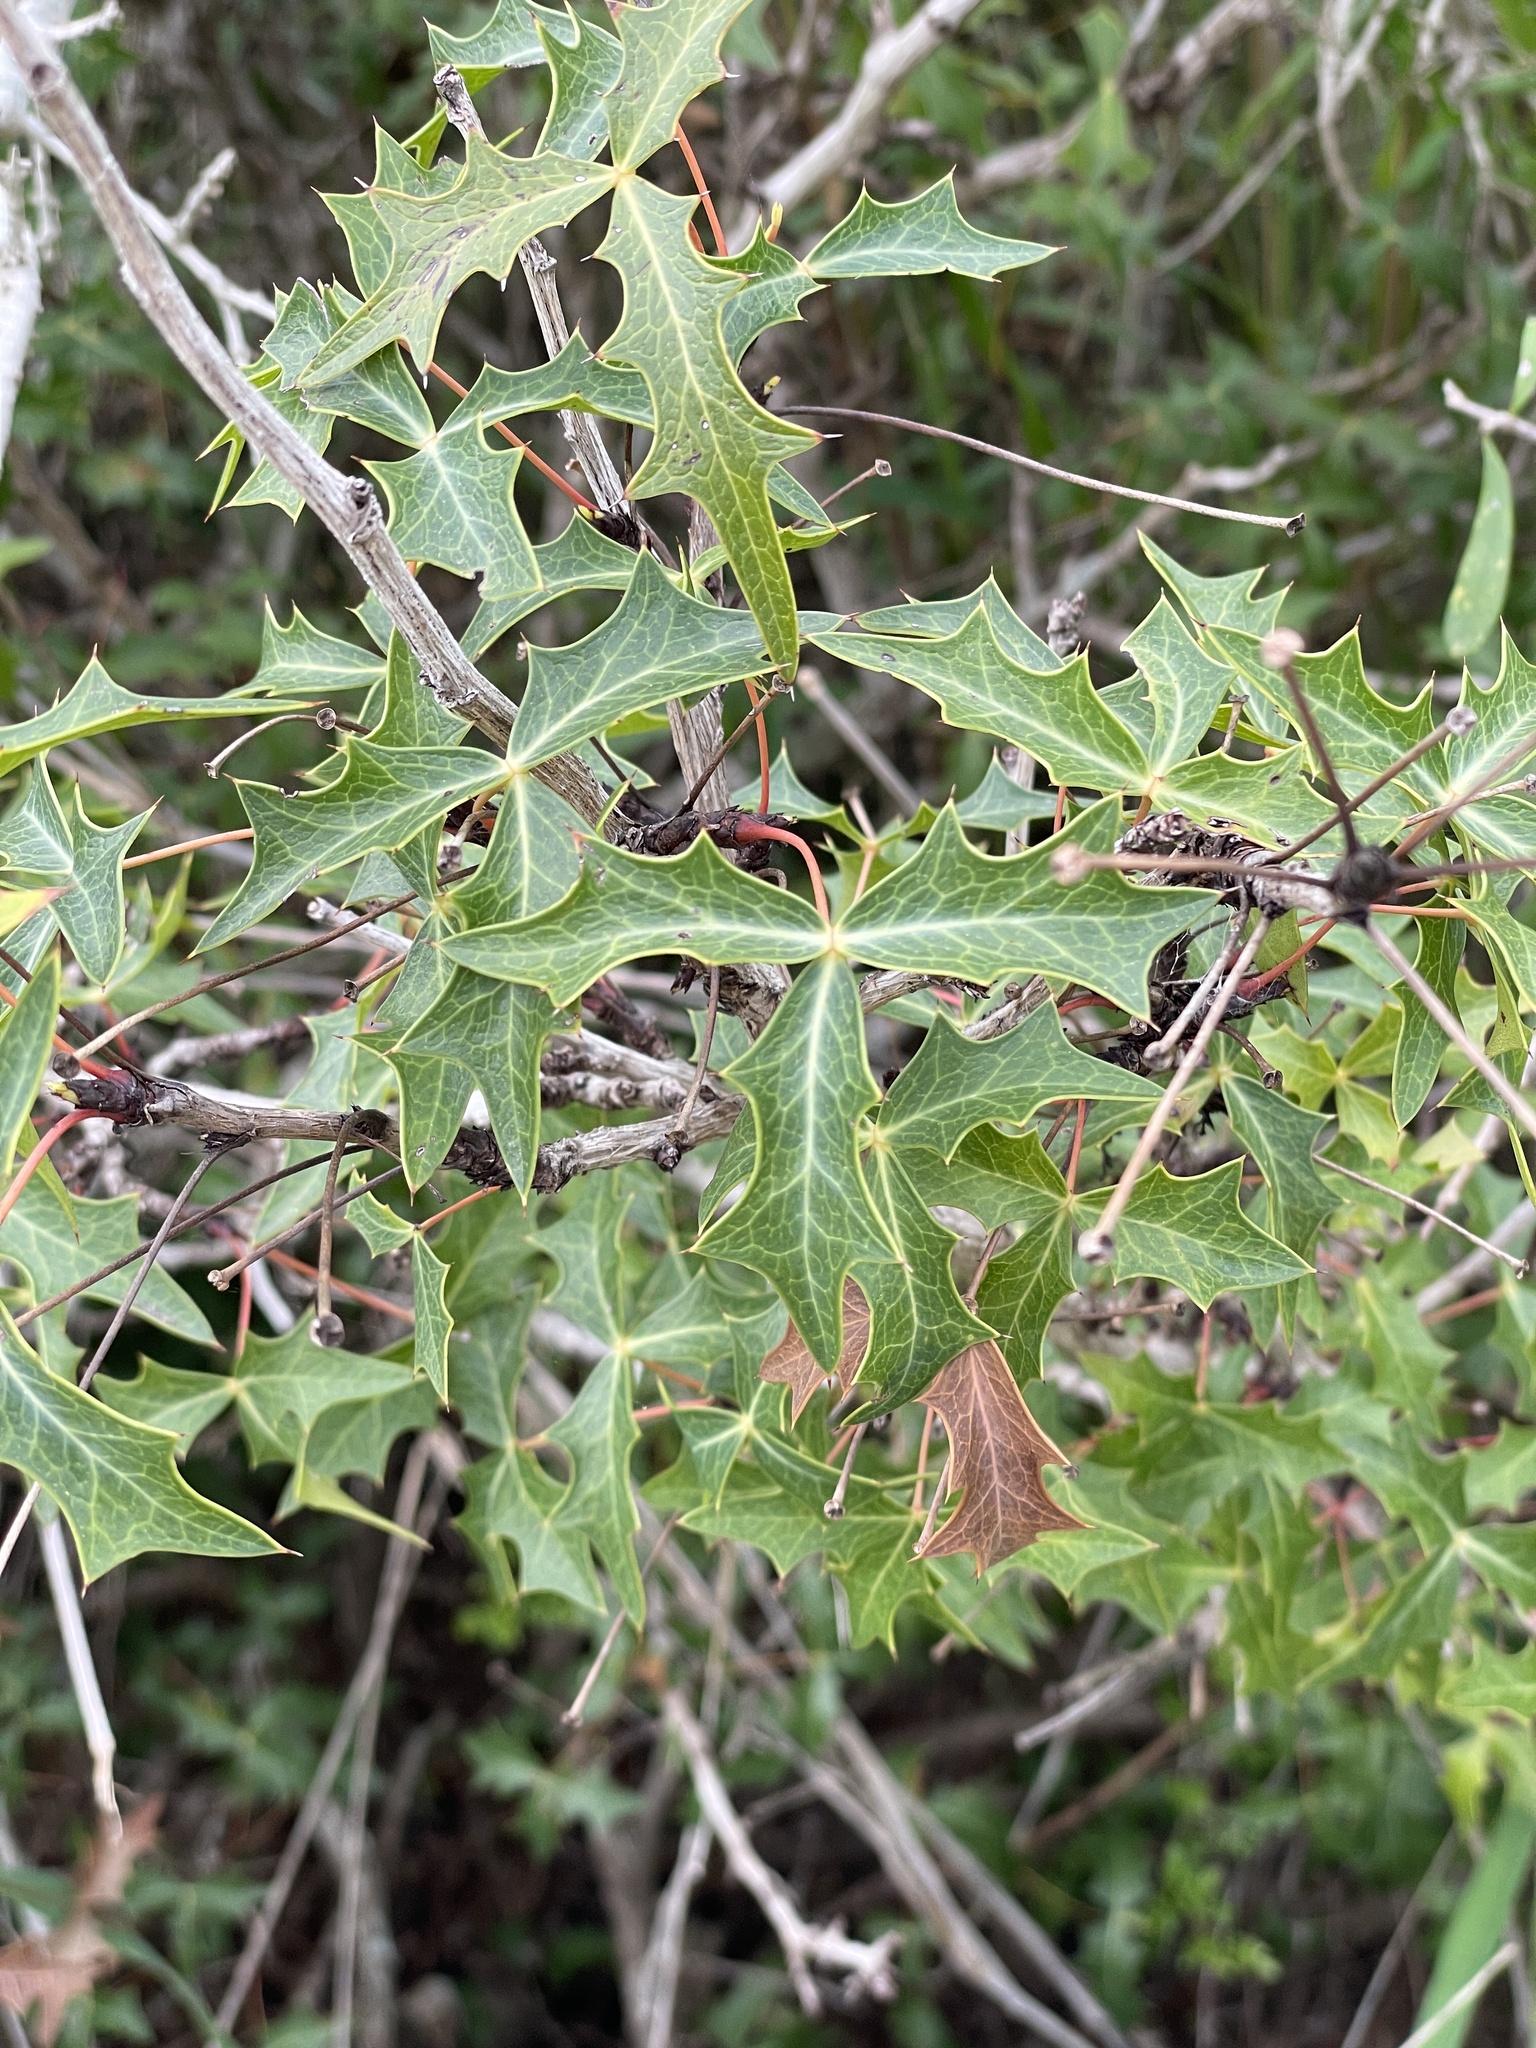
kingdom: Plantae
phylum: Tracheophyta
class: Magnoliopsida
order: Ranunculales
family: Berberidaceae
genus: Alloberberis
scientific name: Alloberberis trifoliolata
